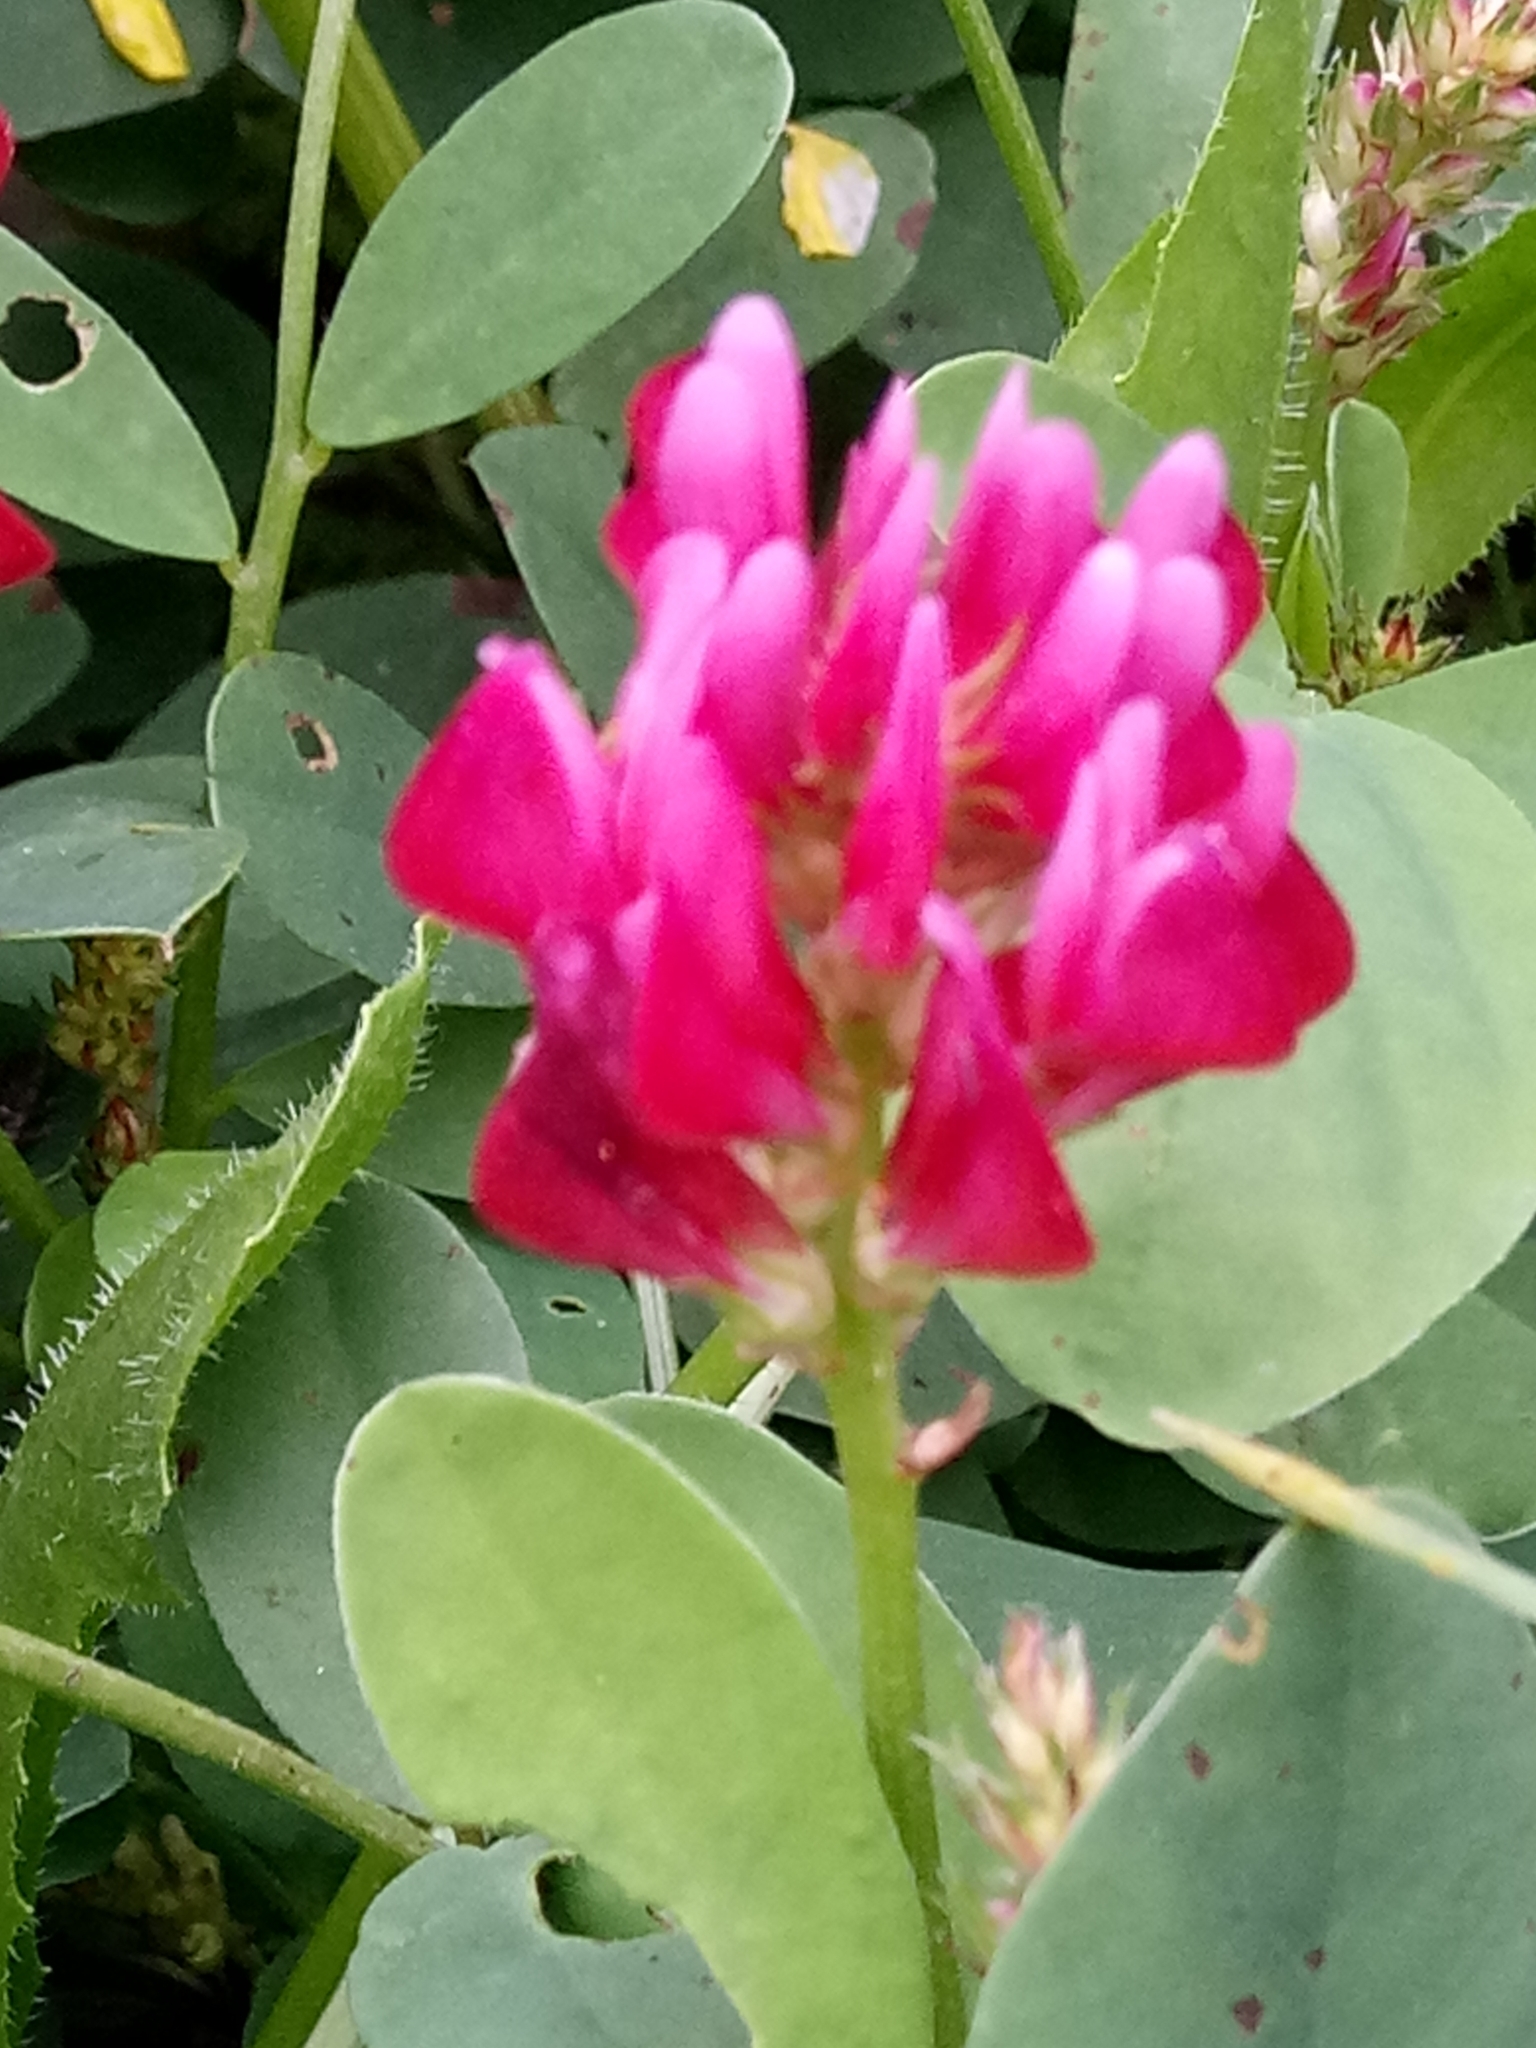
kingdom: Plantae
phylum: Tracheophyta
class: Magnoliopsida
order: Fabales
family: Fabaceae
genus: Sulla
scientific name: Sulla coronaria
